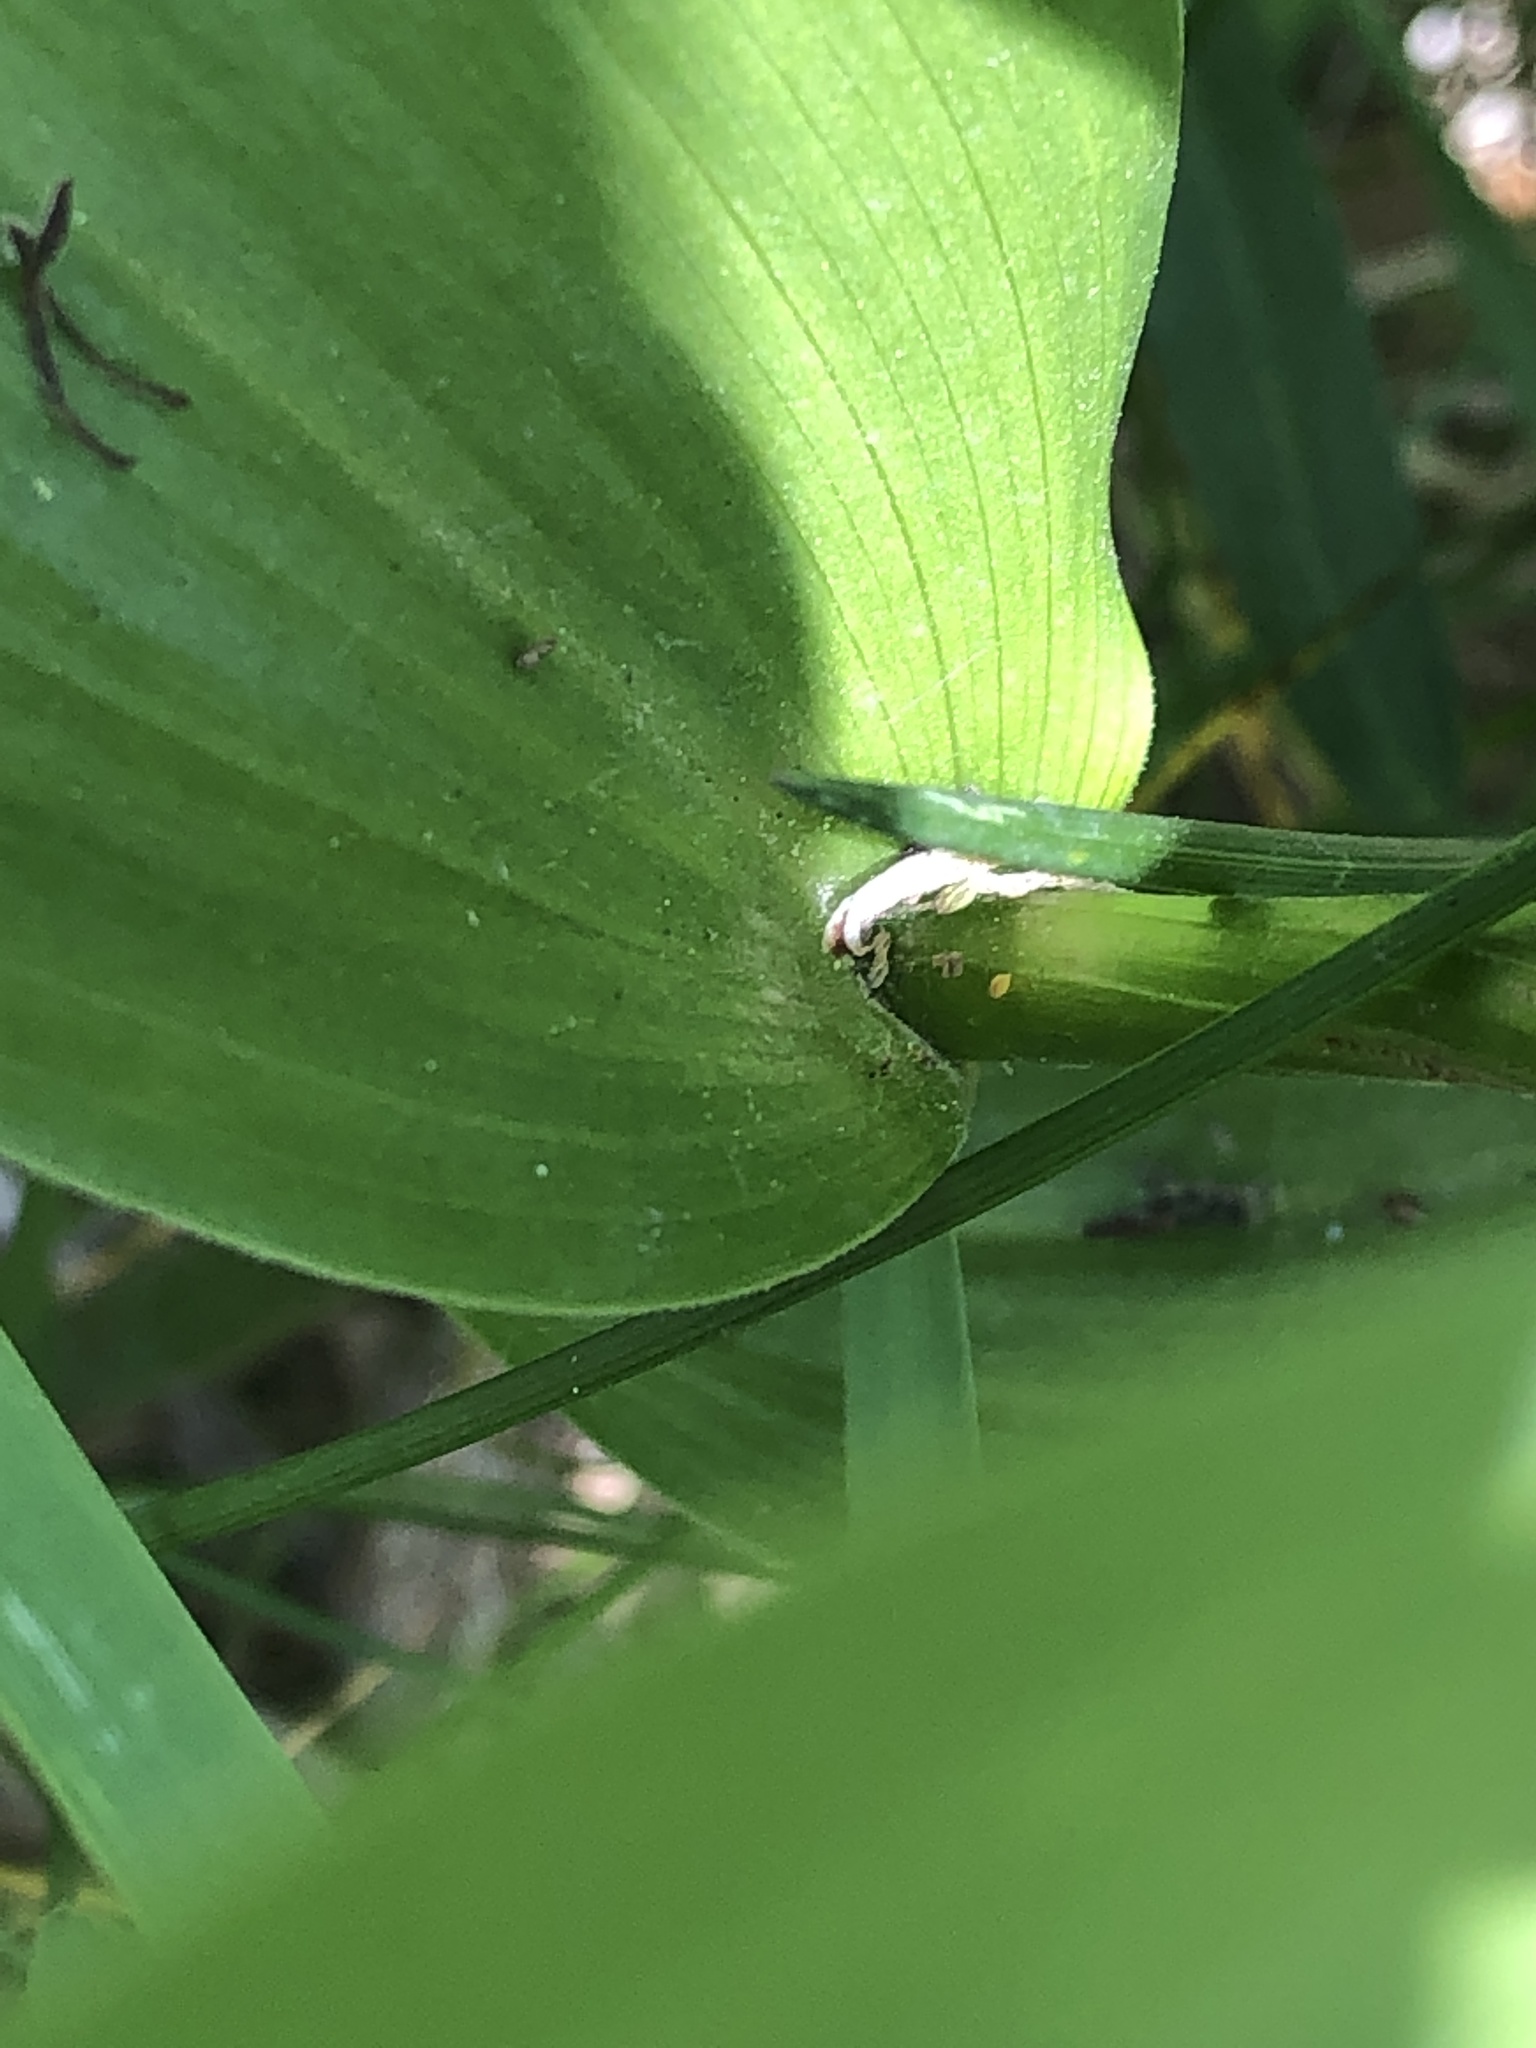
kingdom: Plantae
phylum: Tracheophyta
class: Liliopsida
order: Asparagales
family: Asparagaceae
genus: Maianthemum
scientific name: Maianthemum stellatum
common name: Little false solomon's seal
